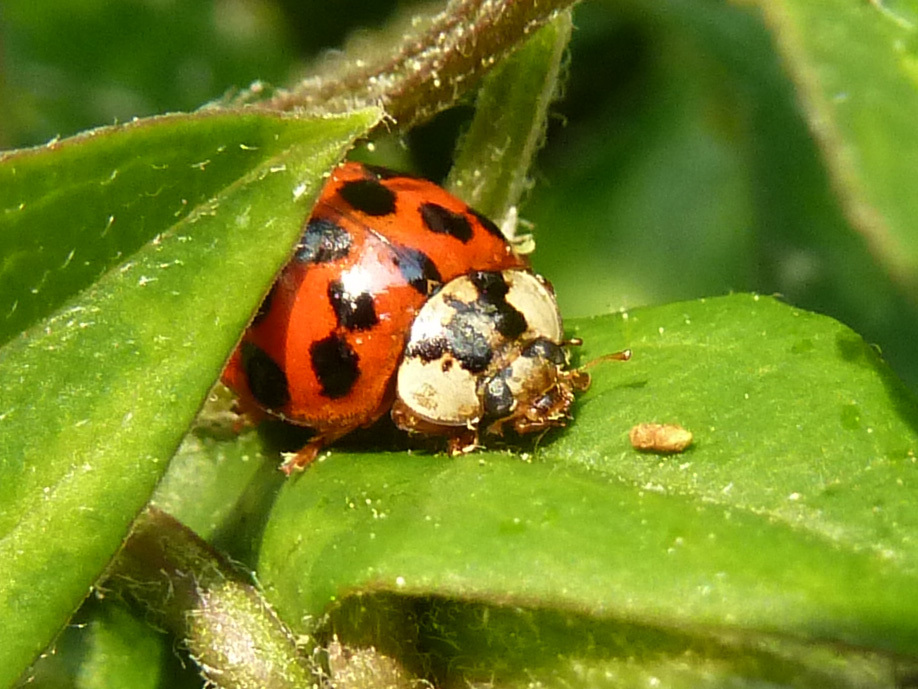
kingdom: Animalia
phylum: Arthropoda
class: Insecta
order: Coleoptera
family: Coccinellidae
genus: Harmonia
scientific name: Harmonia axyridis
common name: Harlequin ladybird
